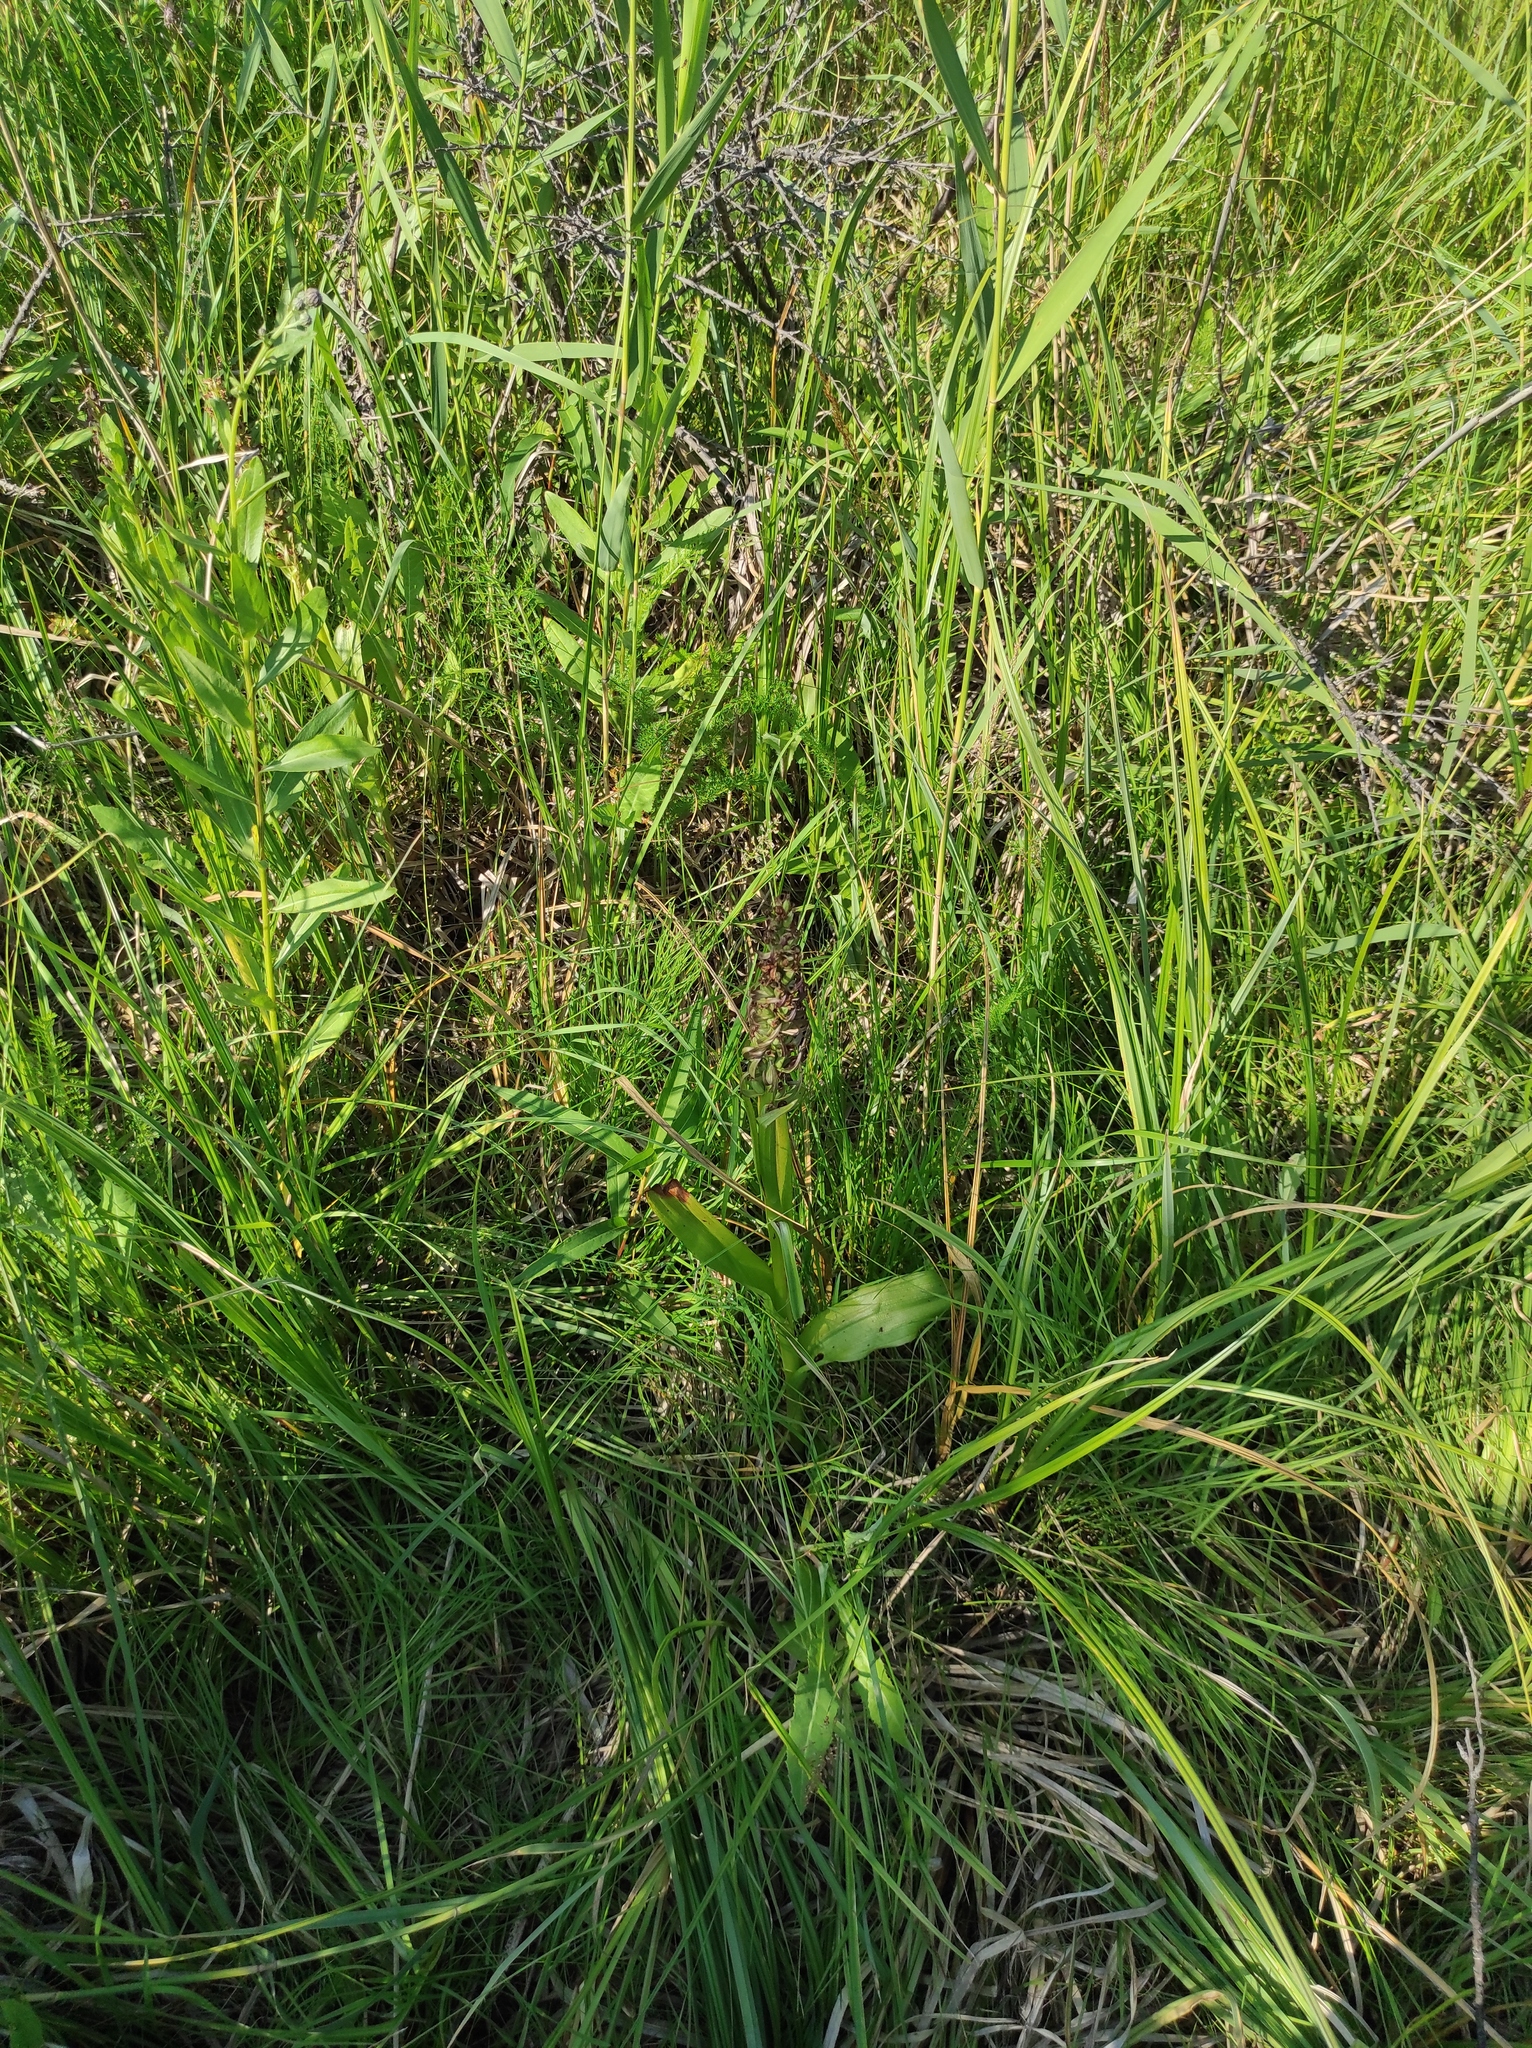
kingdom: Plantae
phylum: Tracheophyta
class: Liliopsida
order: Asparagales
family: Orchidaceae
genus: Dactylorhiza
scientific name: Dactylorhiza incarnata
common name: Early marsh-orchid
